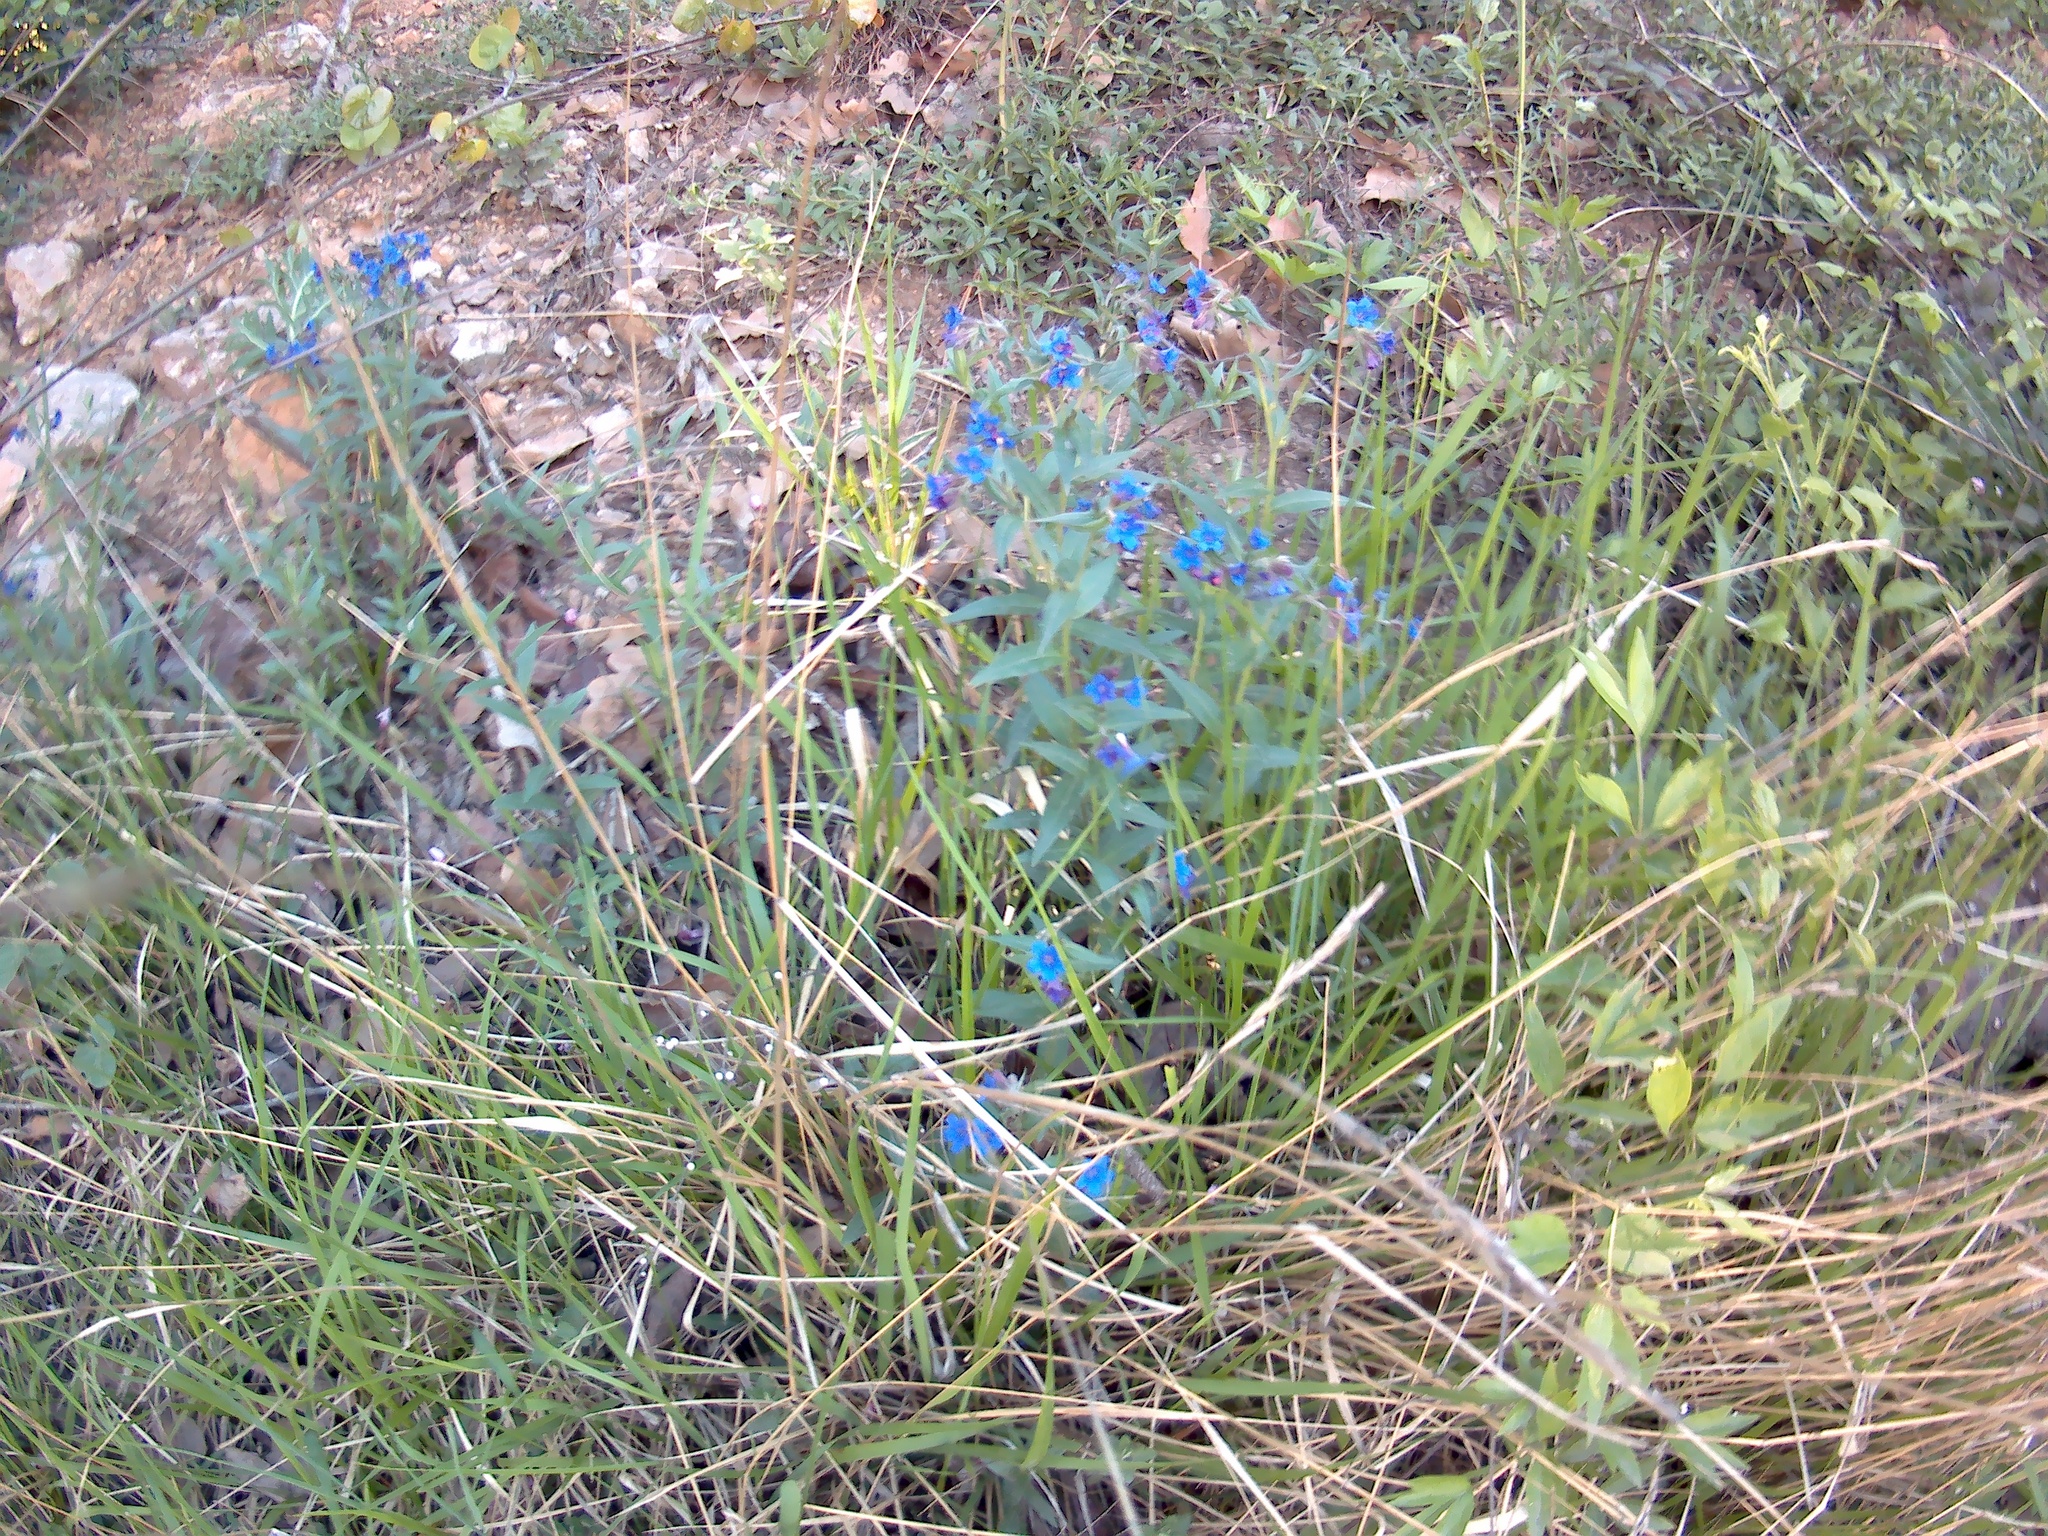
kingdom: Plantae
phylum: Tracheophyta
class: Magnoliopsida
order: Boraginales
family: Boraginaceae
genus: Aegonychon
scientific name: Aegonychon purpurocaeruleum
